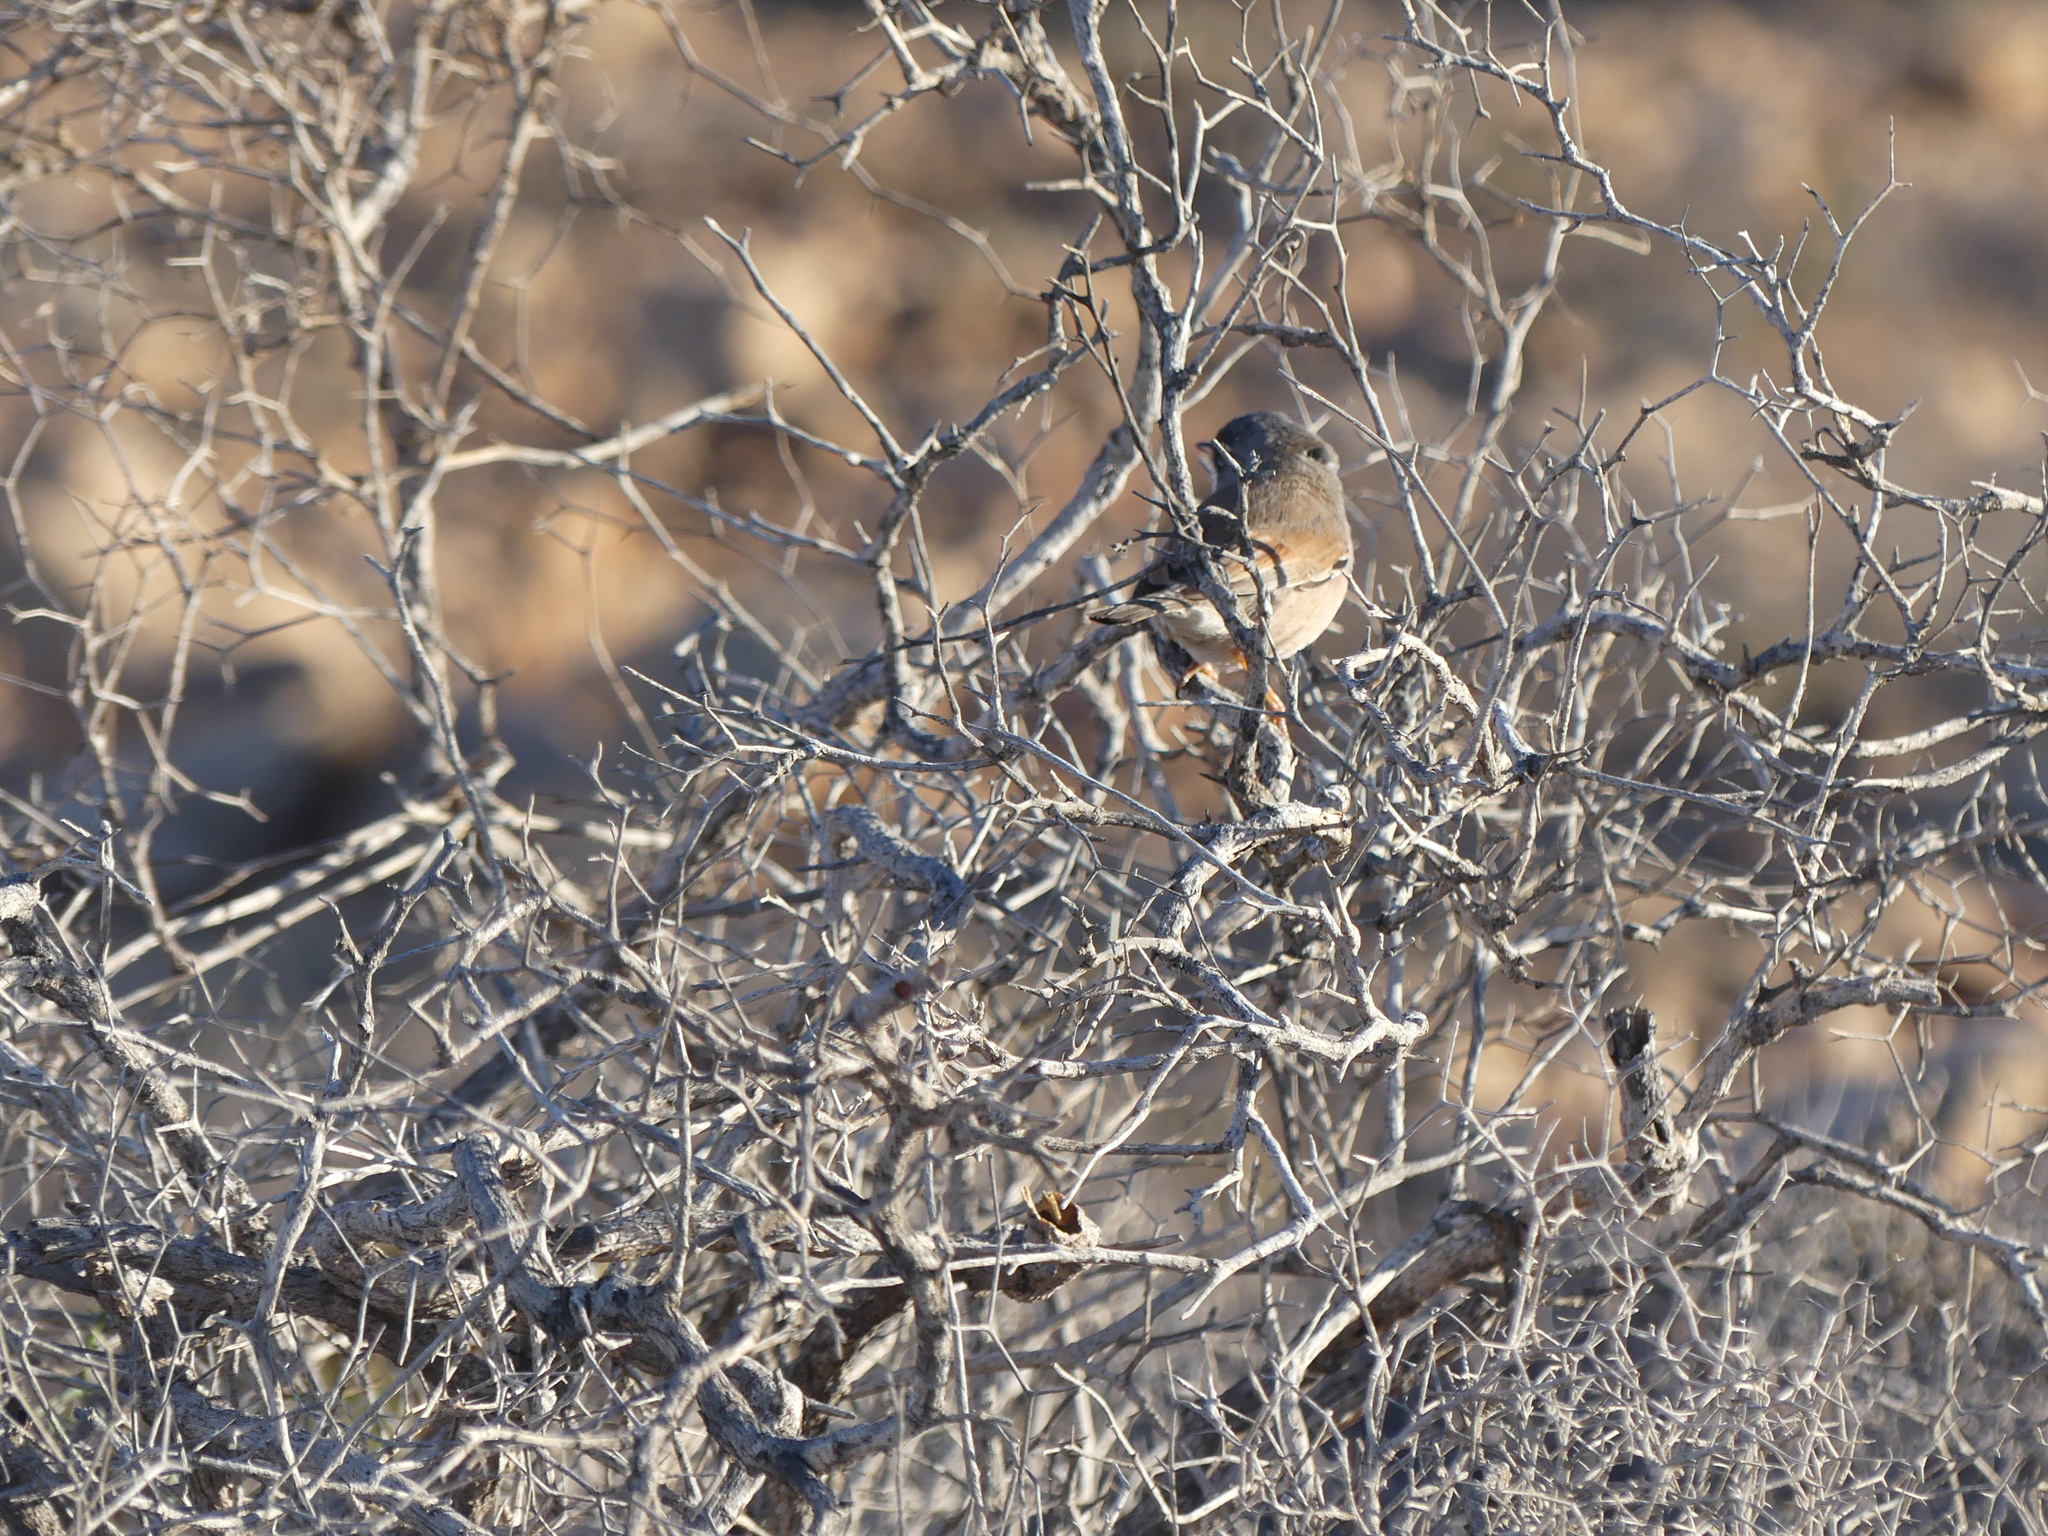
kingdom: Animalia
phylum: Chordata
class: Aves
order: Passeriformes
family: Sylviidae
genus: Sylvia
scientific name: Sylvia conspicillata
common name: Spectacled warbler
